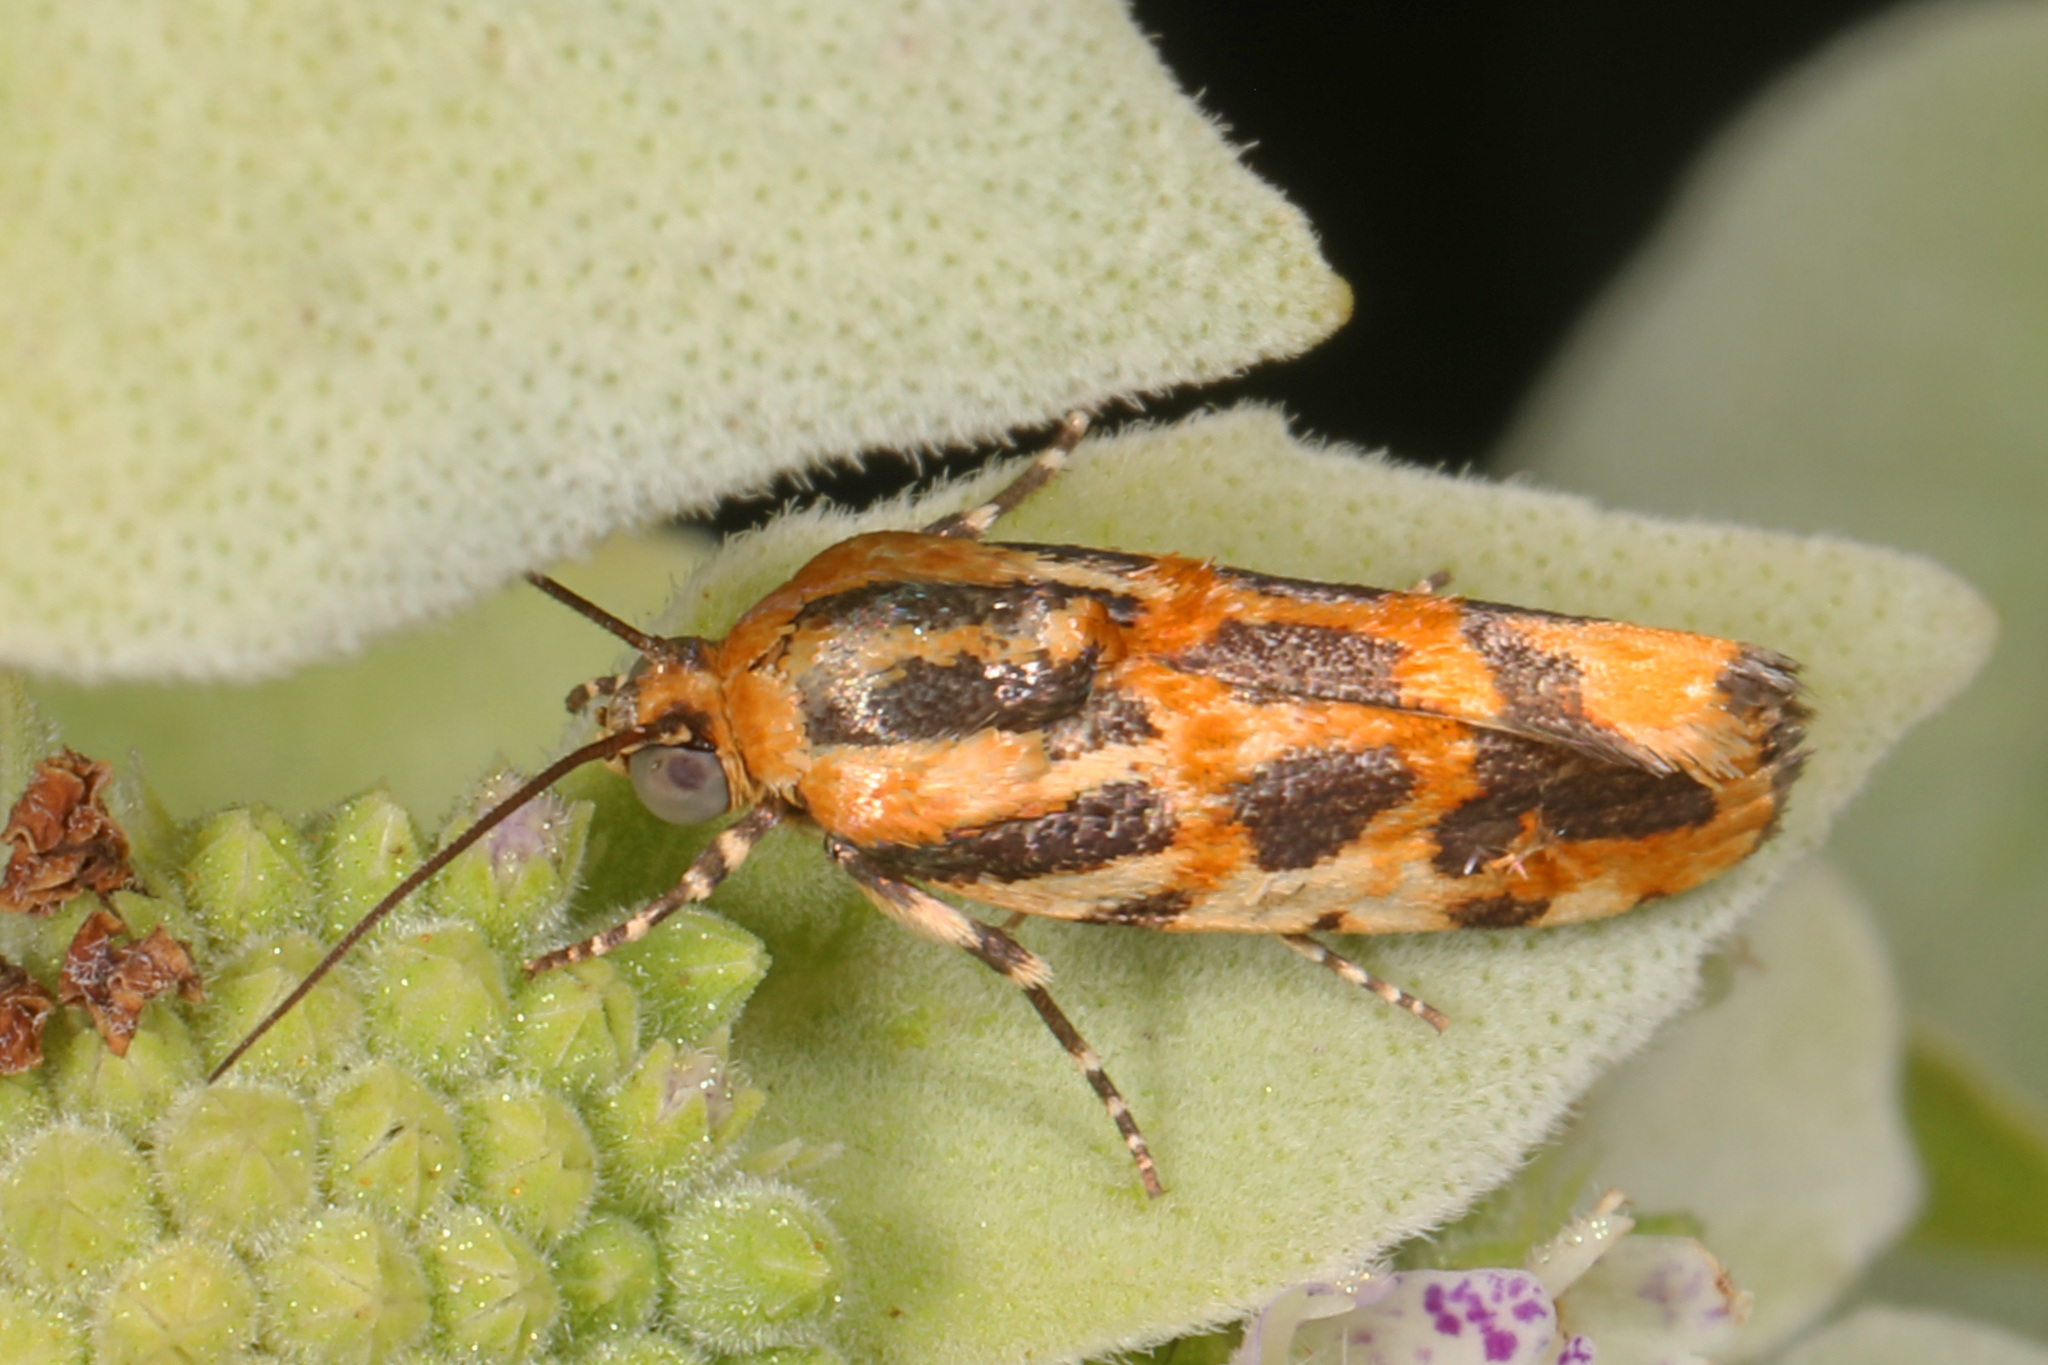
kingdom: Animalia
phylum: Arthropoda
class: Insecta
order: Lepidoptera
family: Noctuidae
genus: Acontia
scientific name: Acontia leo
